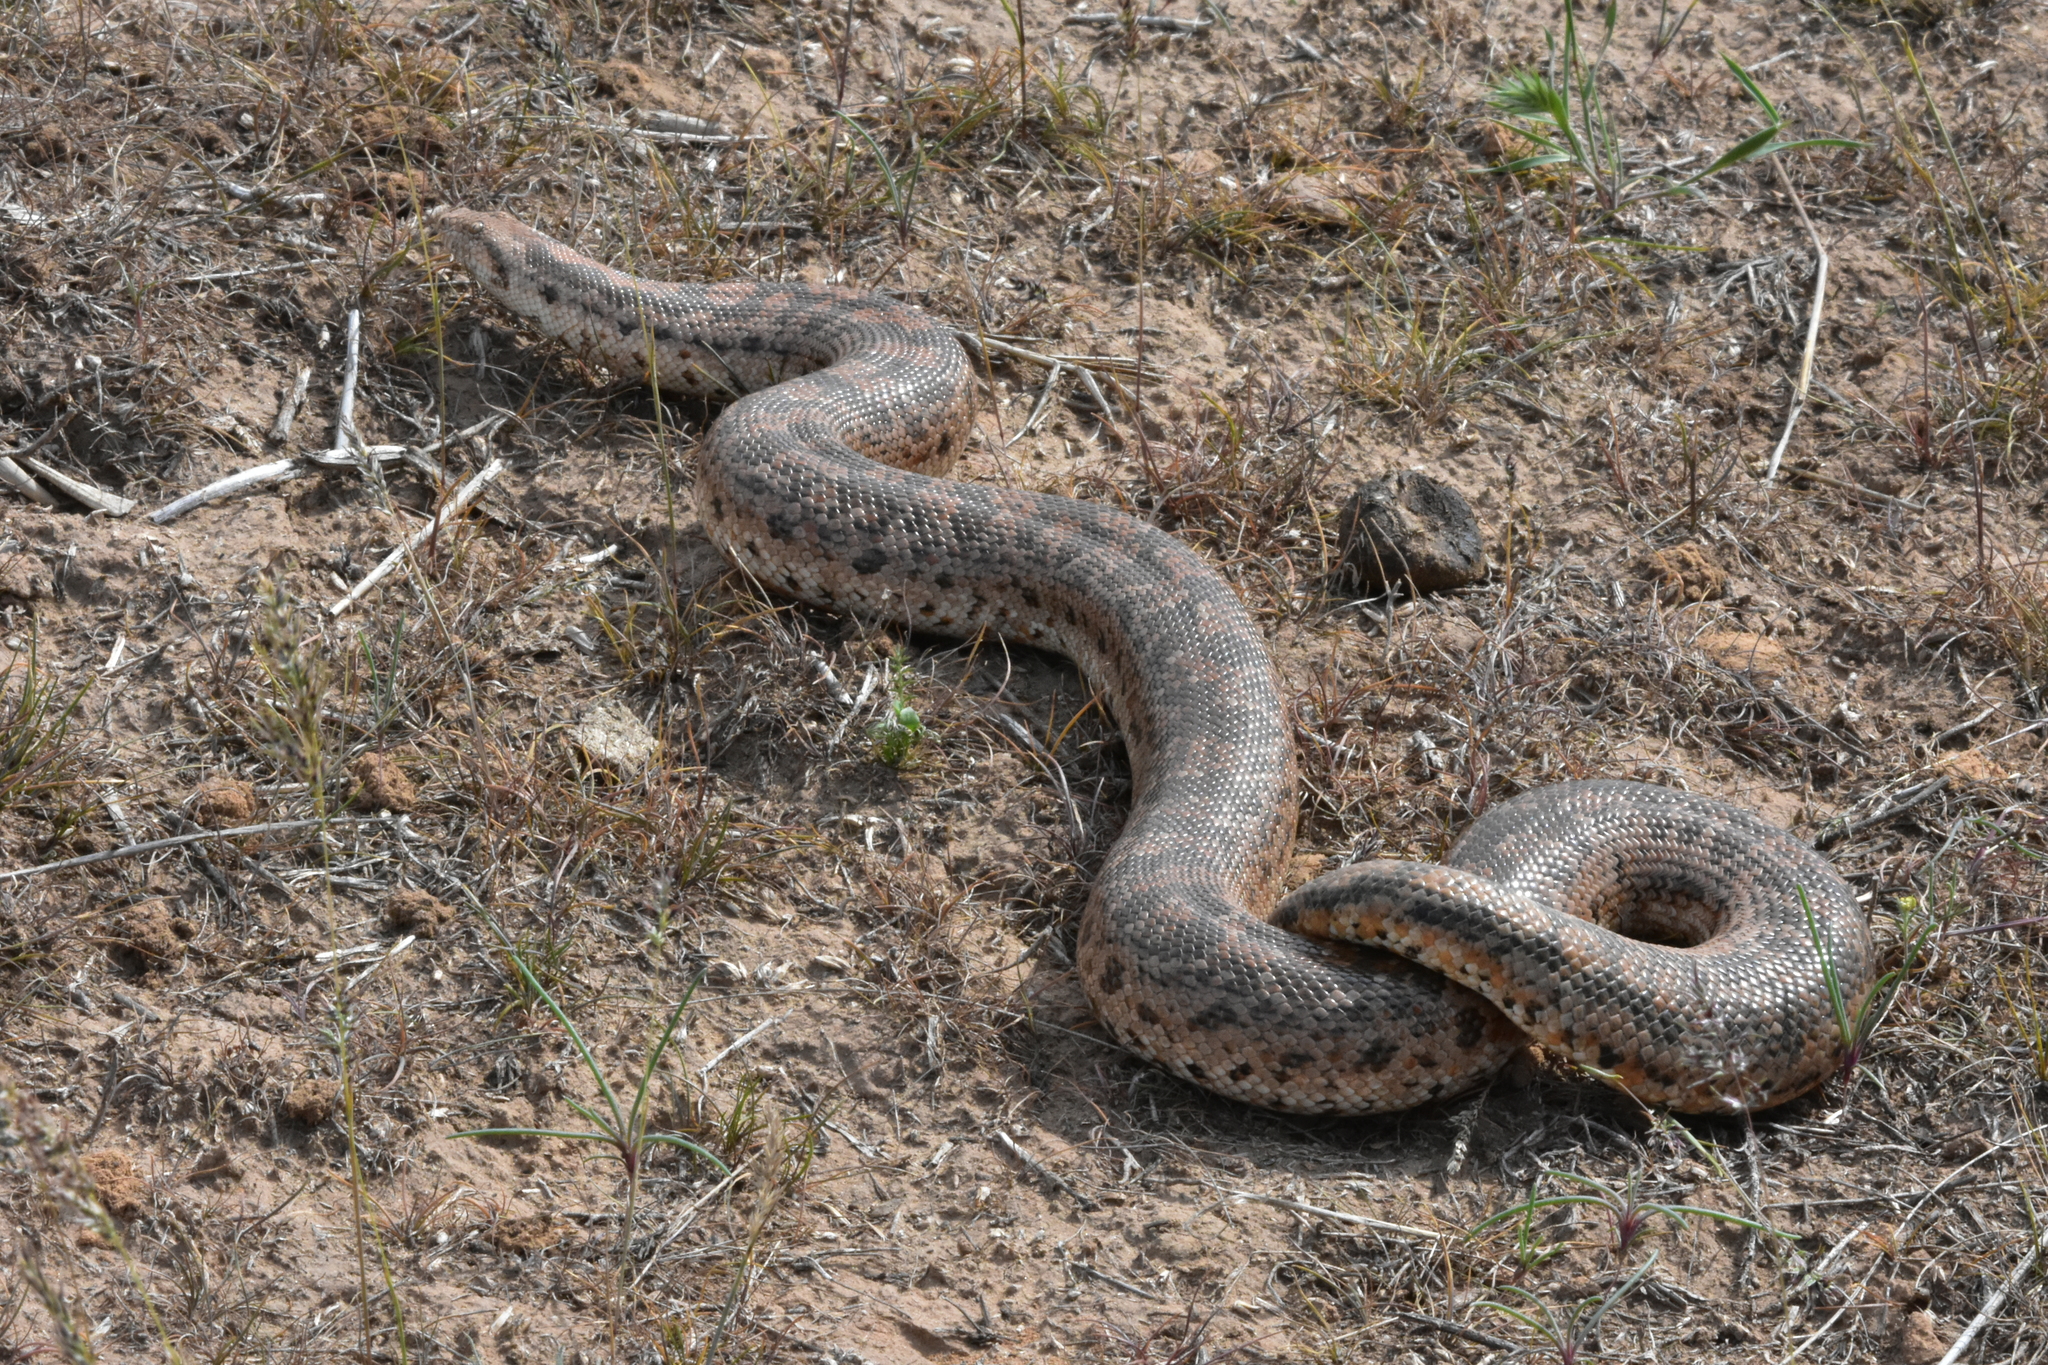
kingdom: Animalia
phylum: Chordata
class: Squamata
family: Boidae
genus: Eryx
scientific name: Eryx miliaris
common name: Desert sand boa
